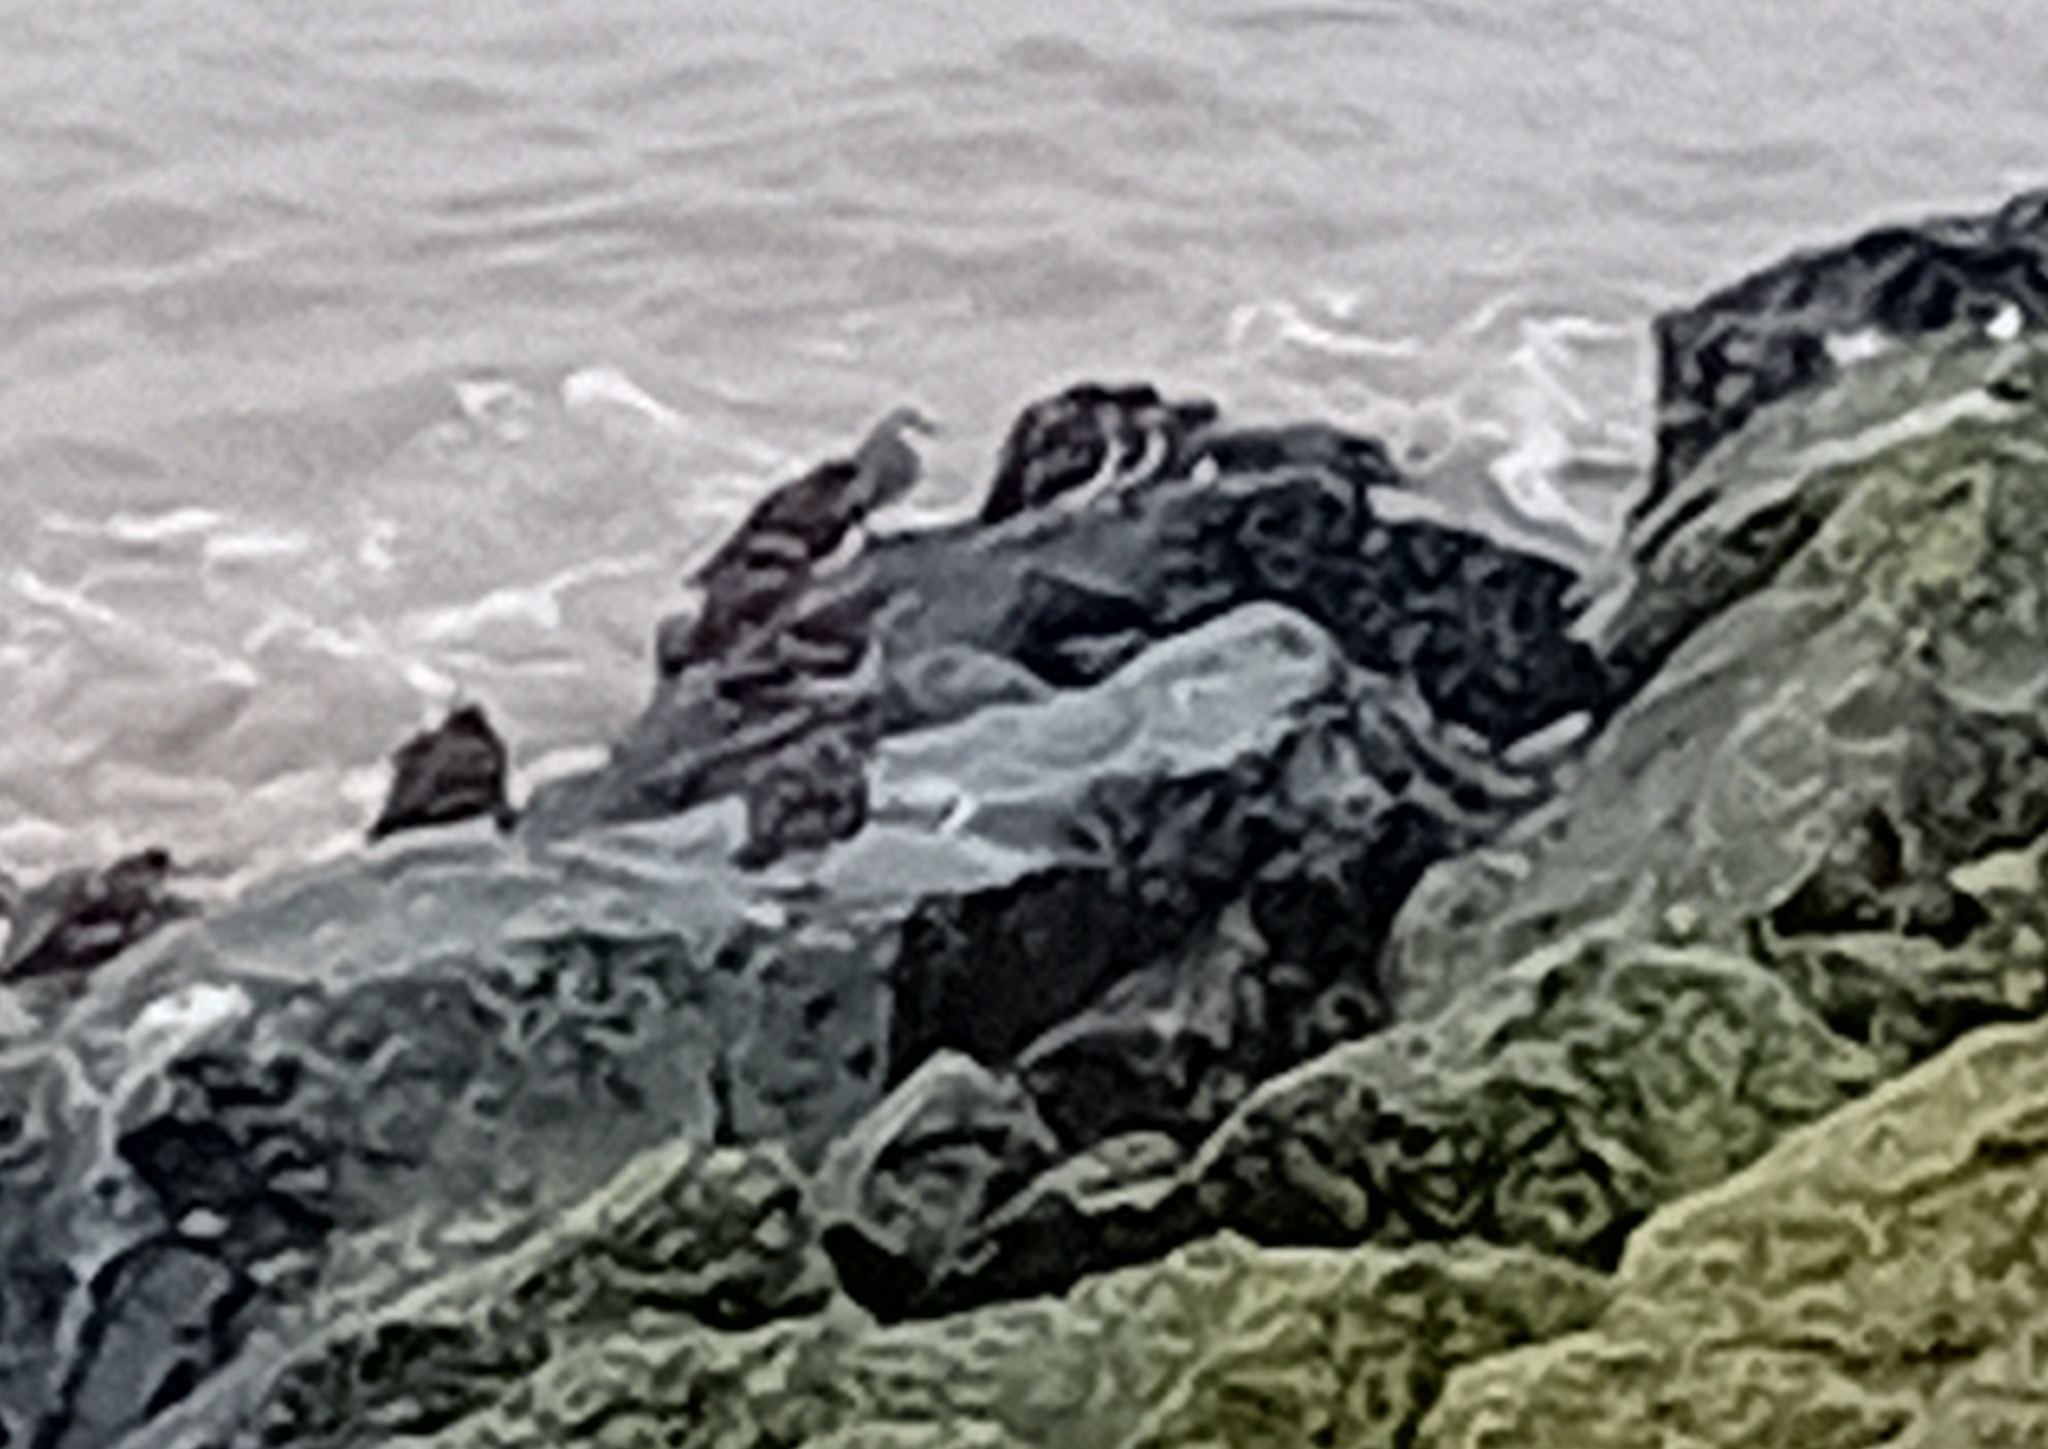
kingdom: Animalia
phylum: Chordata
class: Aves
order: Charadriiformes
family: Scolopacidae
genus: Arenaria
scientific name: Arenaria interpres
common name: Ruddy turnstone
